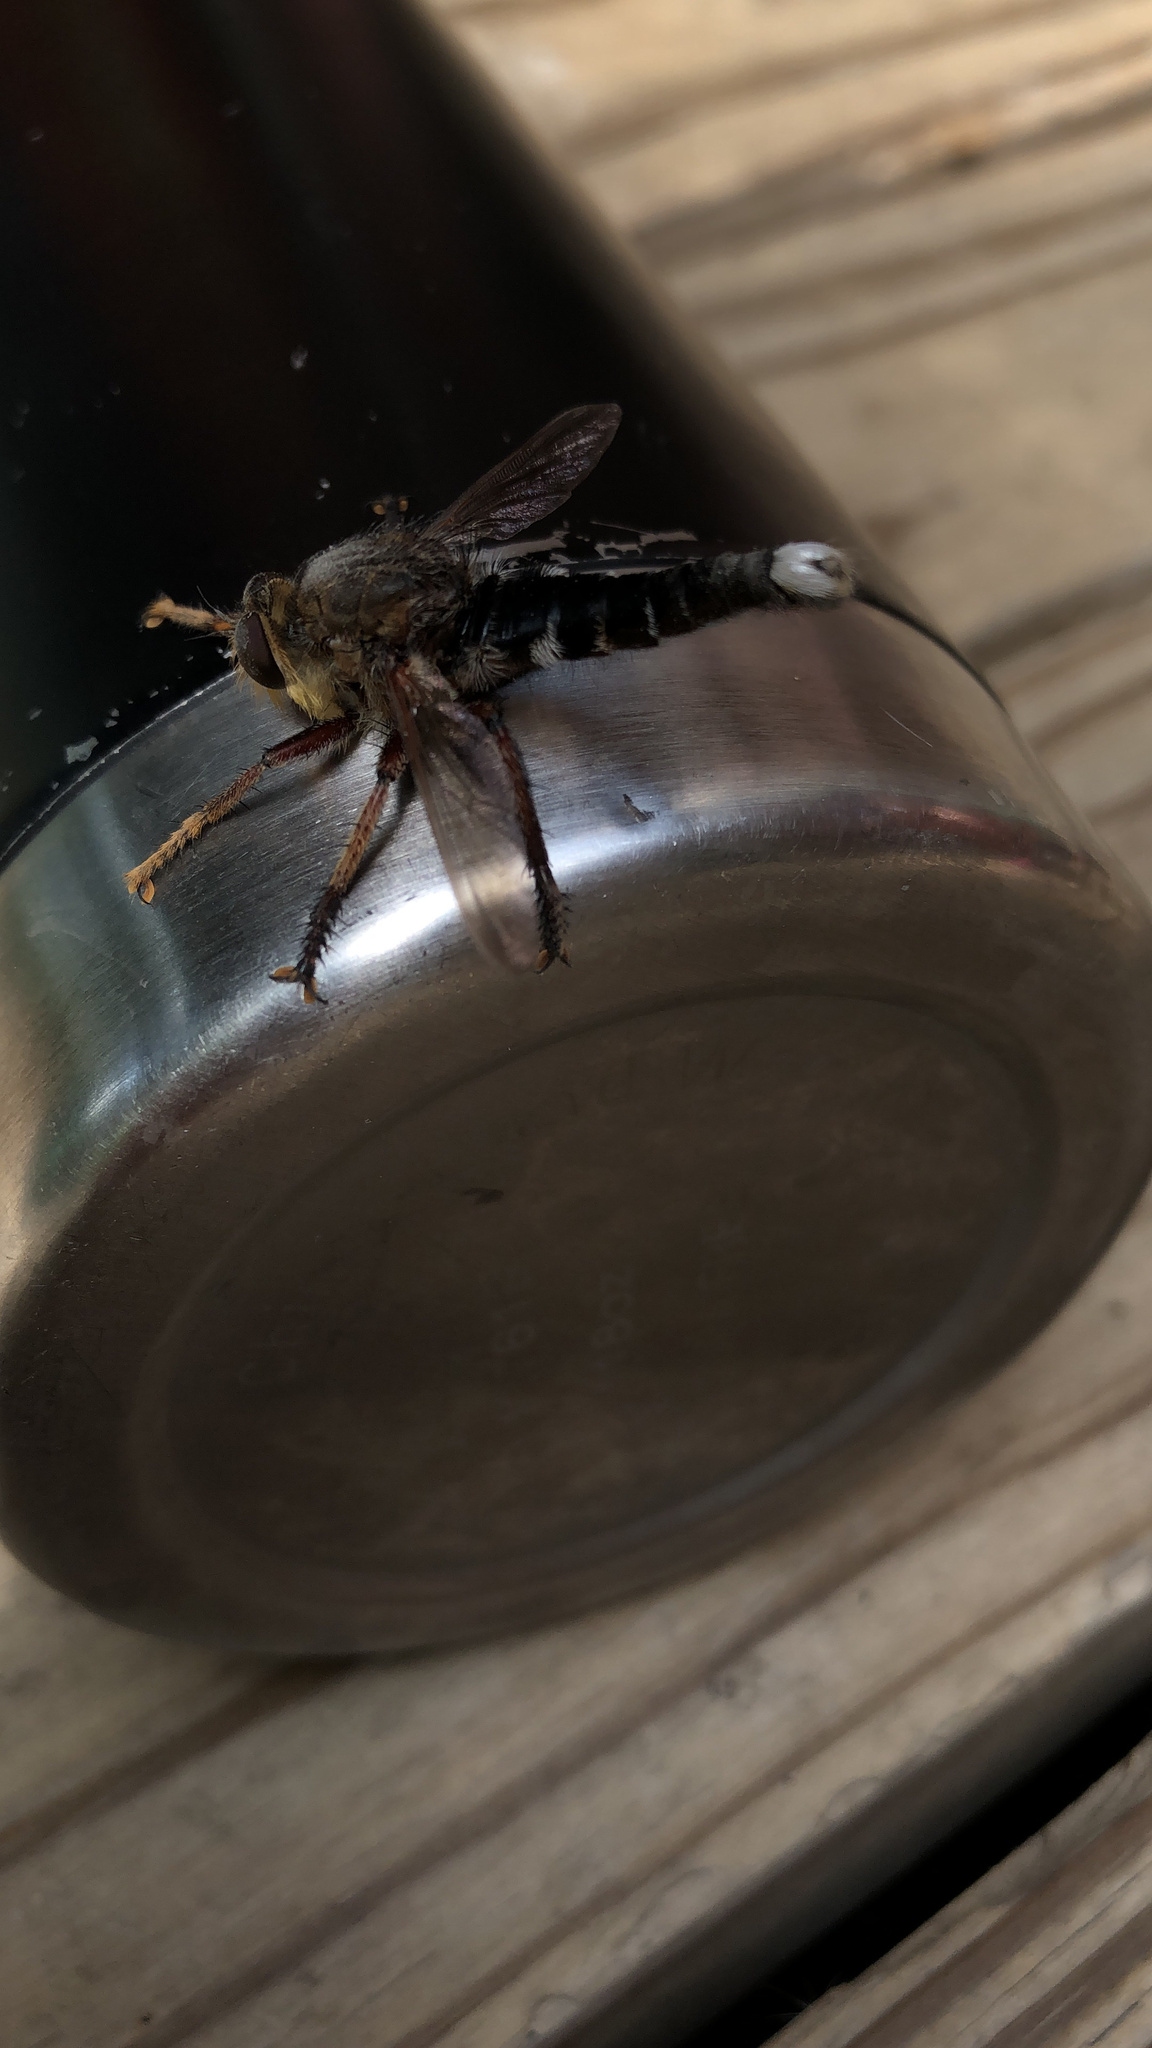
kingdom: Animalia
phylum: Arthropoda
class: Insecta
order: Diptera
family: Asilidae
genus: Promachus
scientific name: Promachus bastardii
